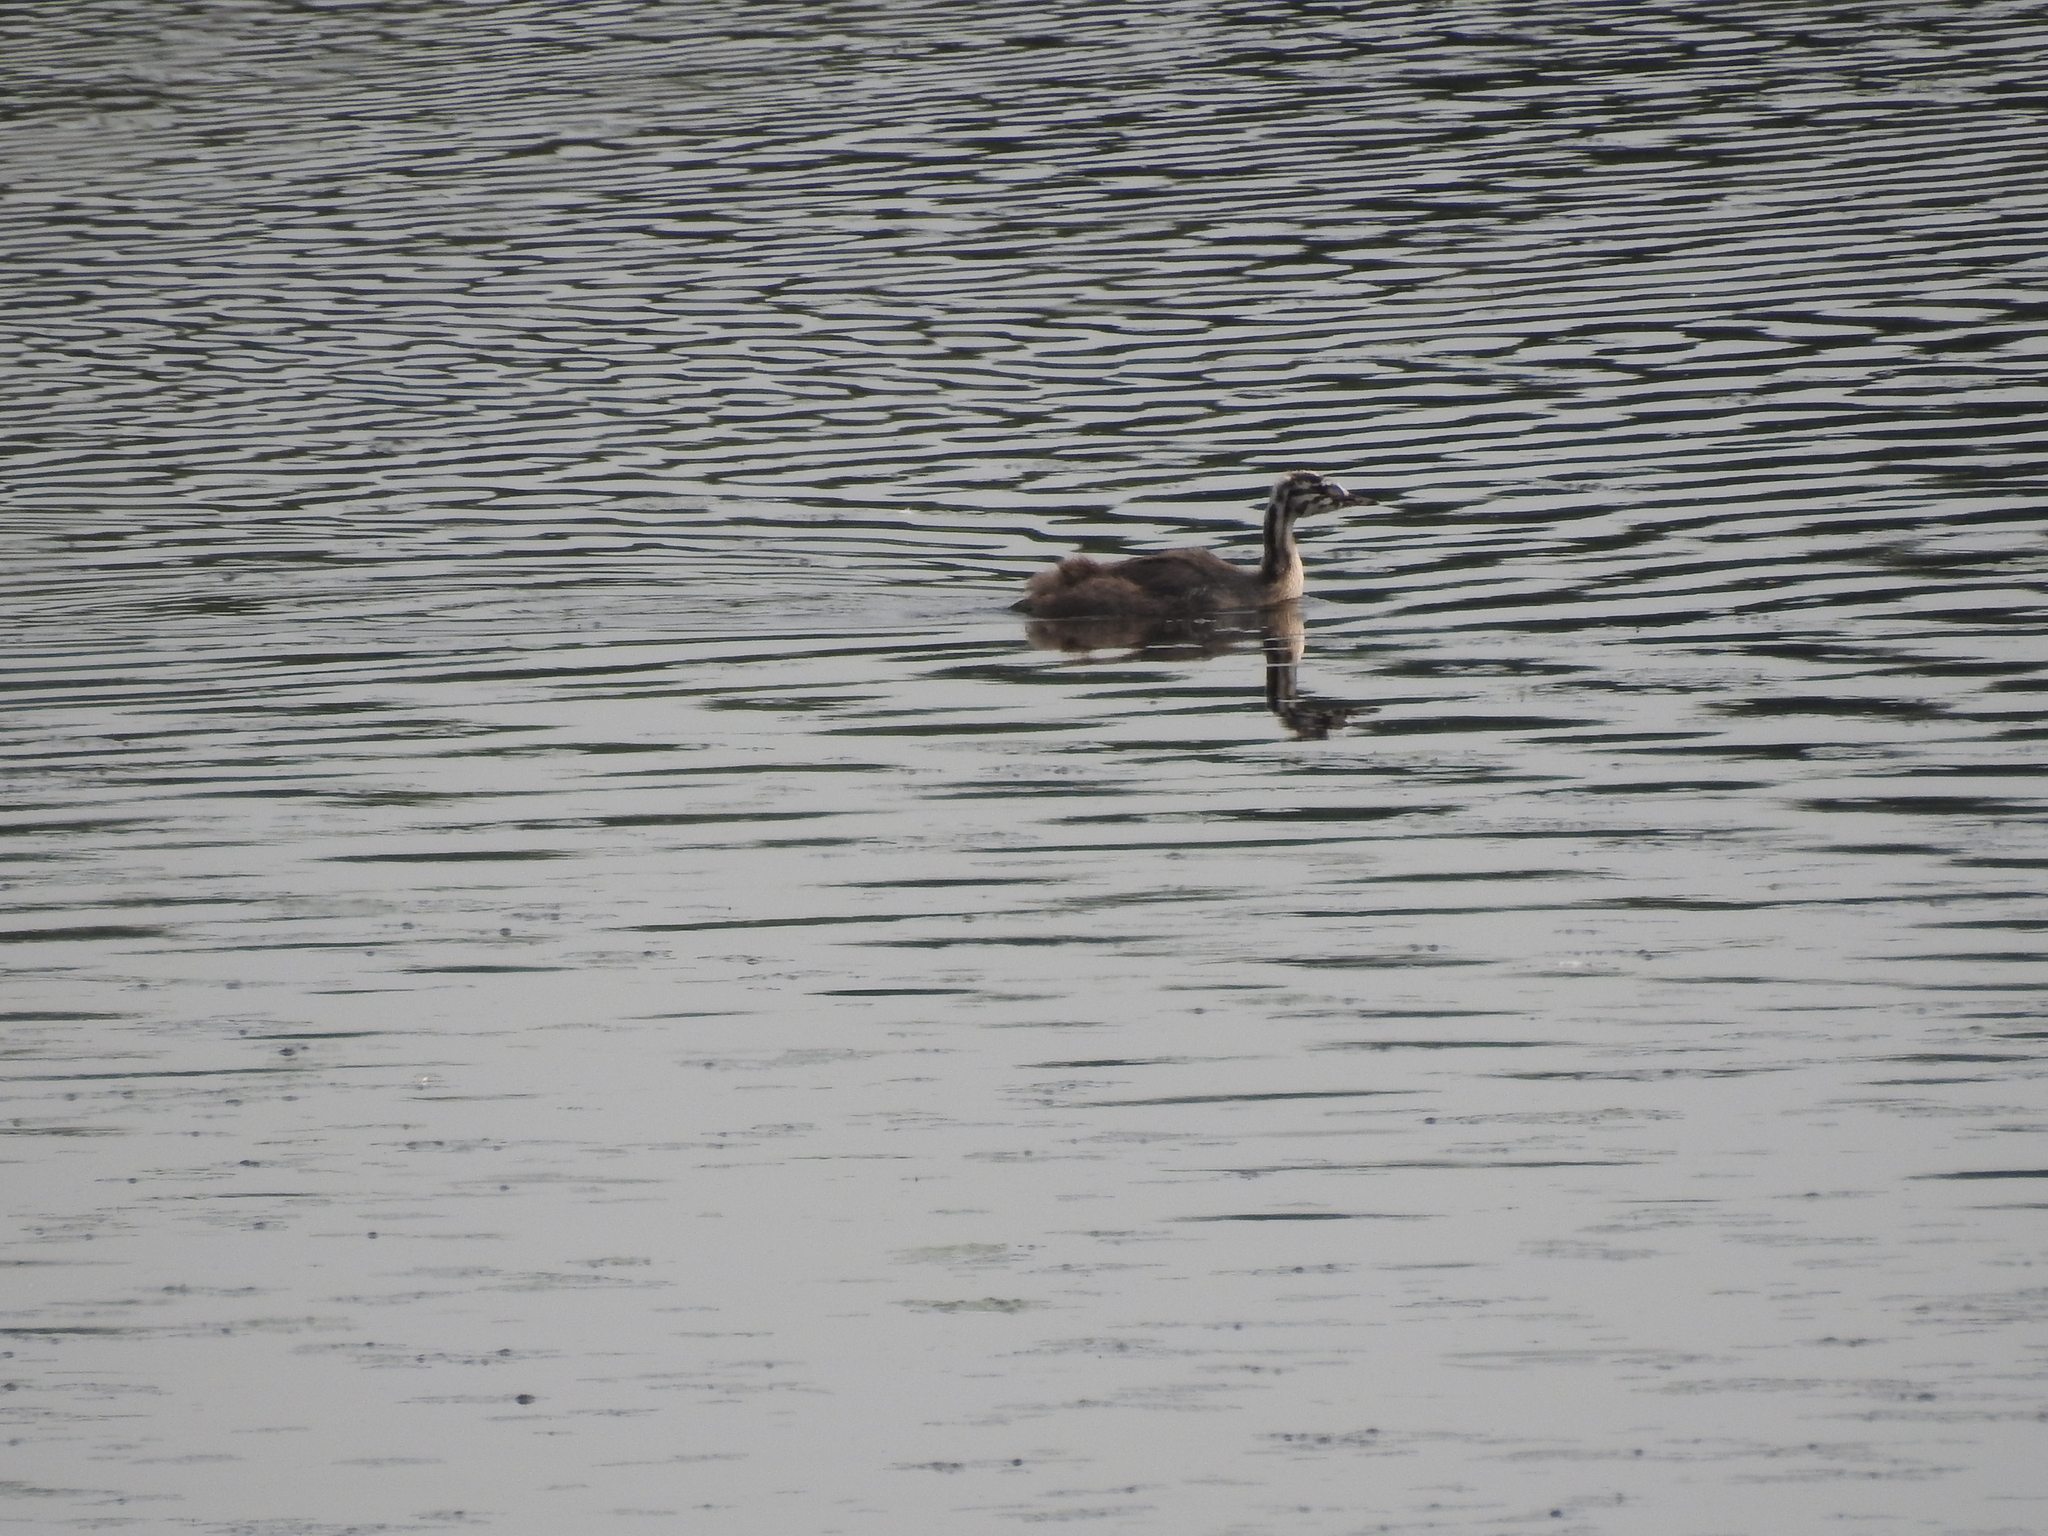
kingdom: Animalia
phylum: Chordata
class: Aves
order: Podicipediformes
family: Podicipedidae
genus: Podiceps
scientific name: Podiceps cristatus
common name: Great crested grebe
